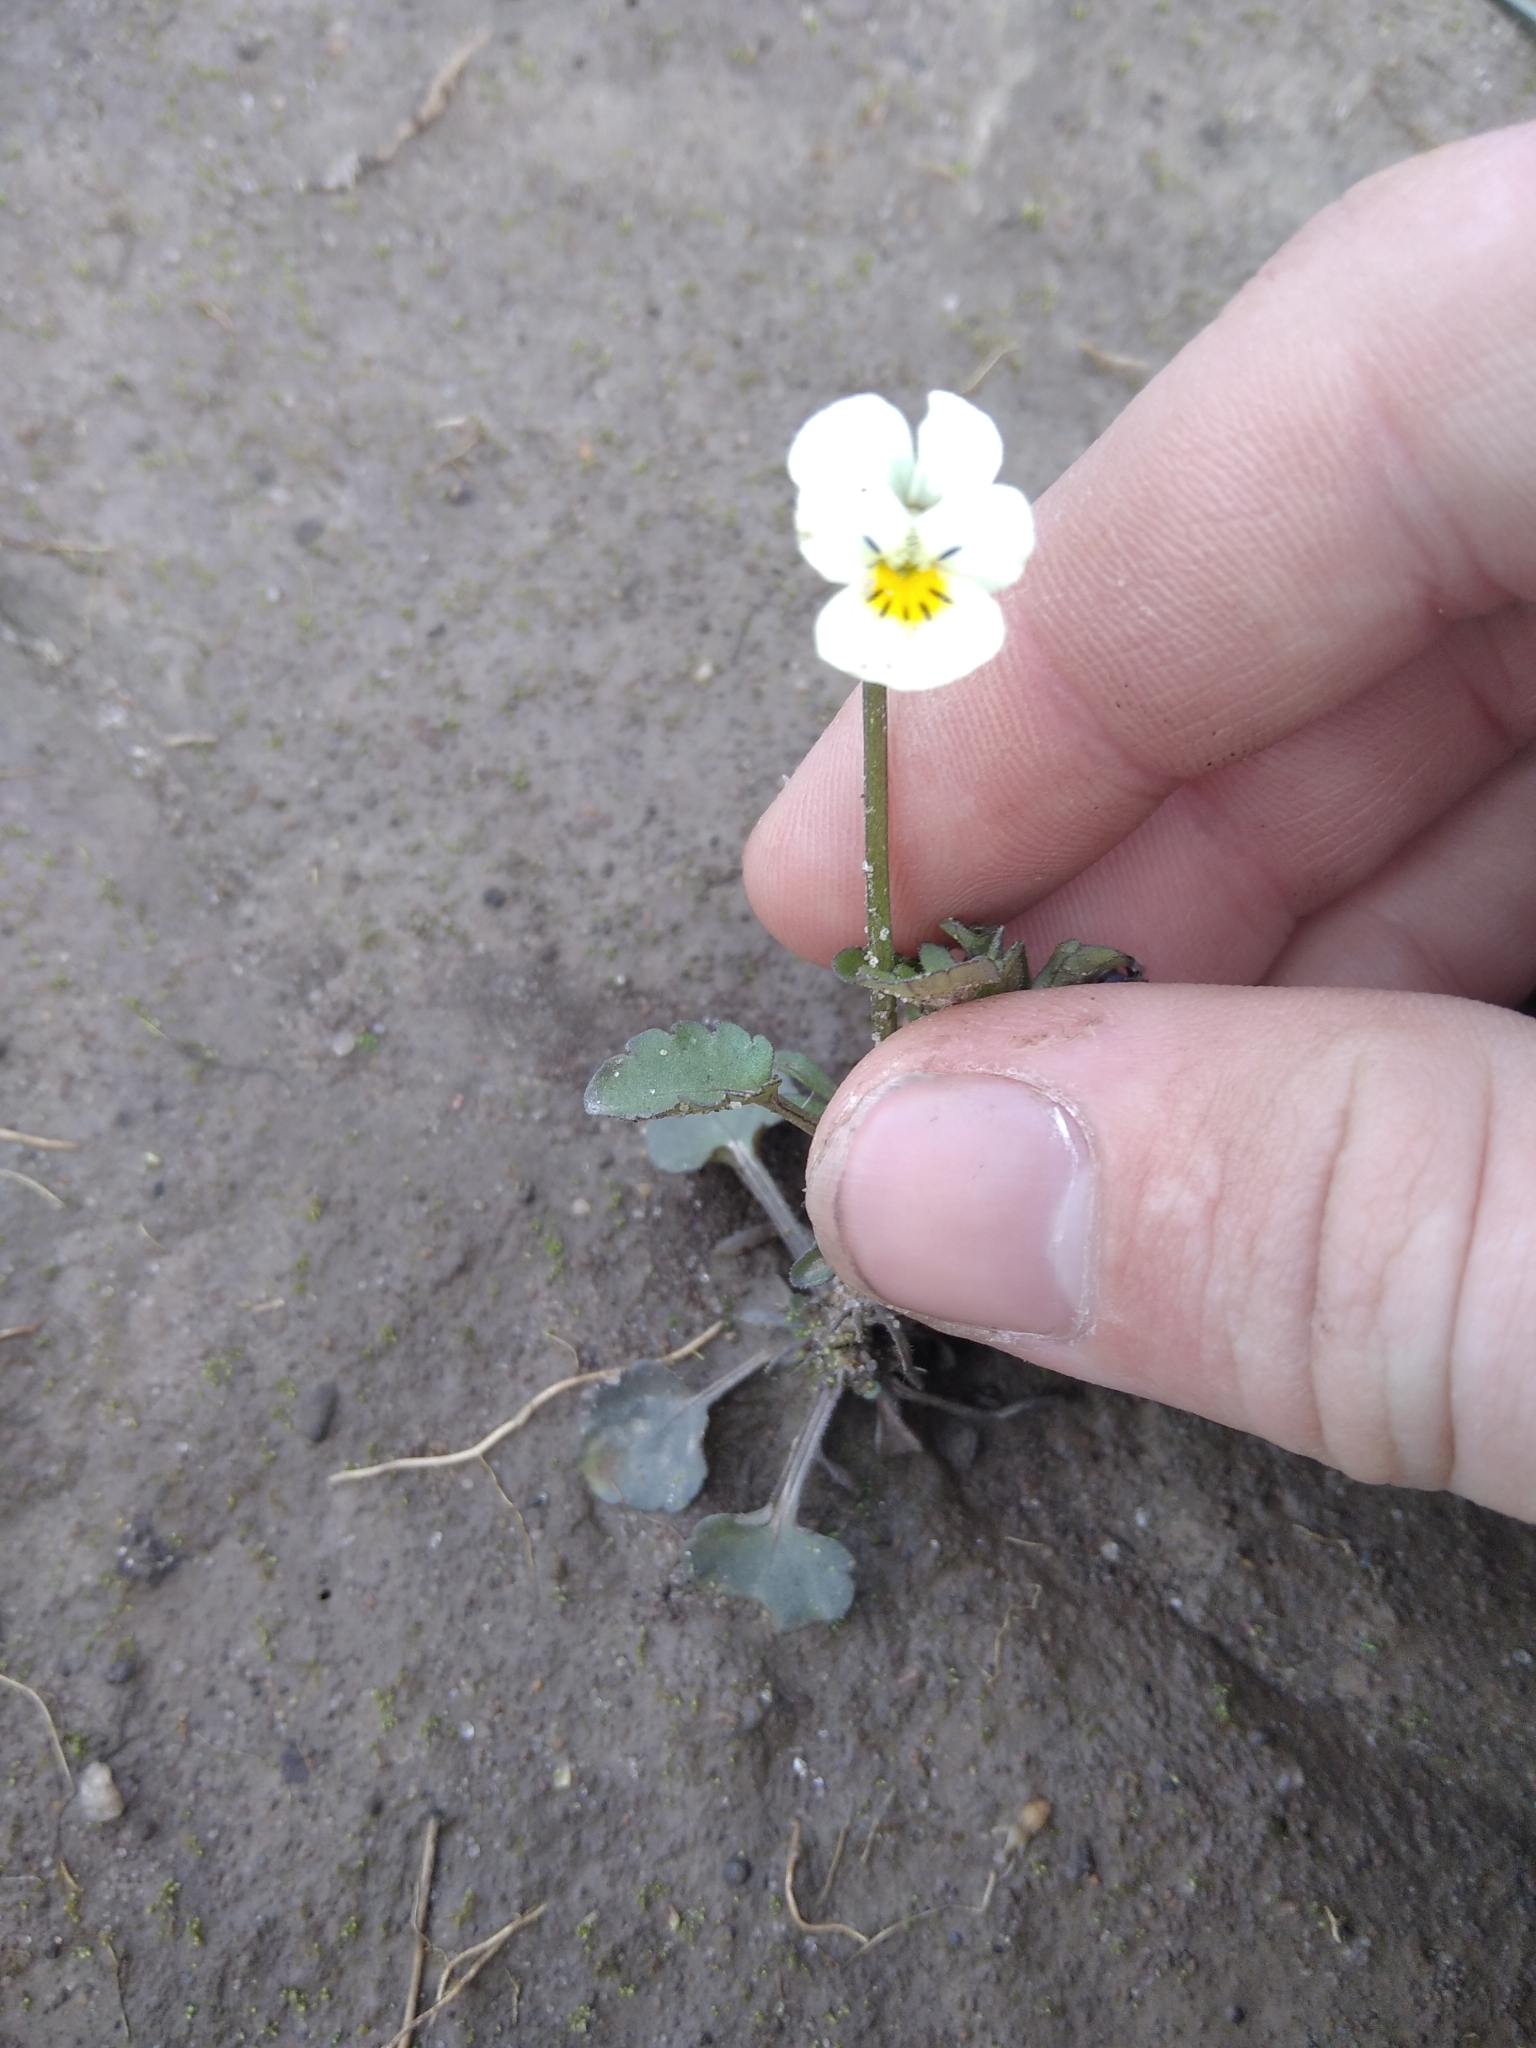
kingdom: Plantae
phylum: Tracheophyta
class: Magnoliopsida
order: Malpighiales
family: Violaceae
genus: Viola
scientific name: Viola arvensis
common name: Field pansy
